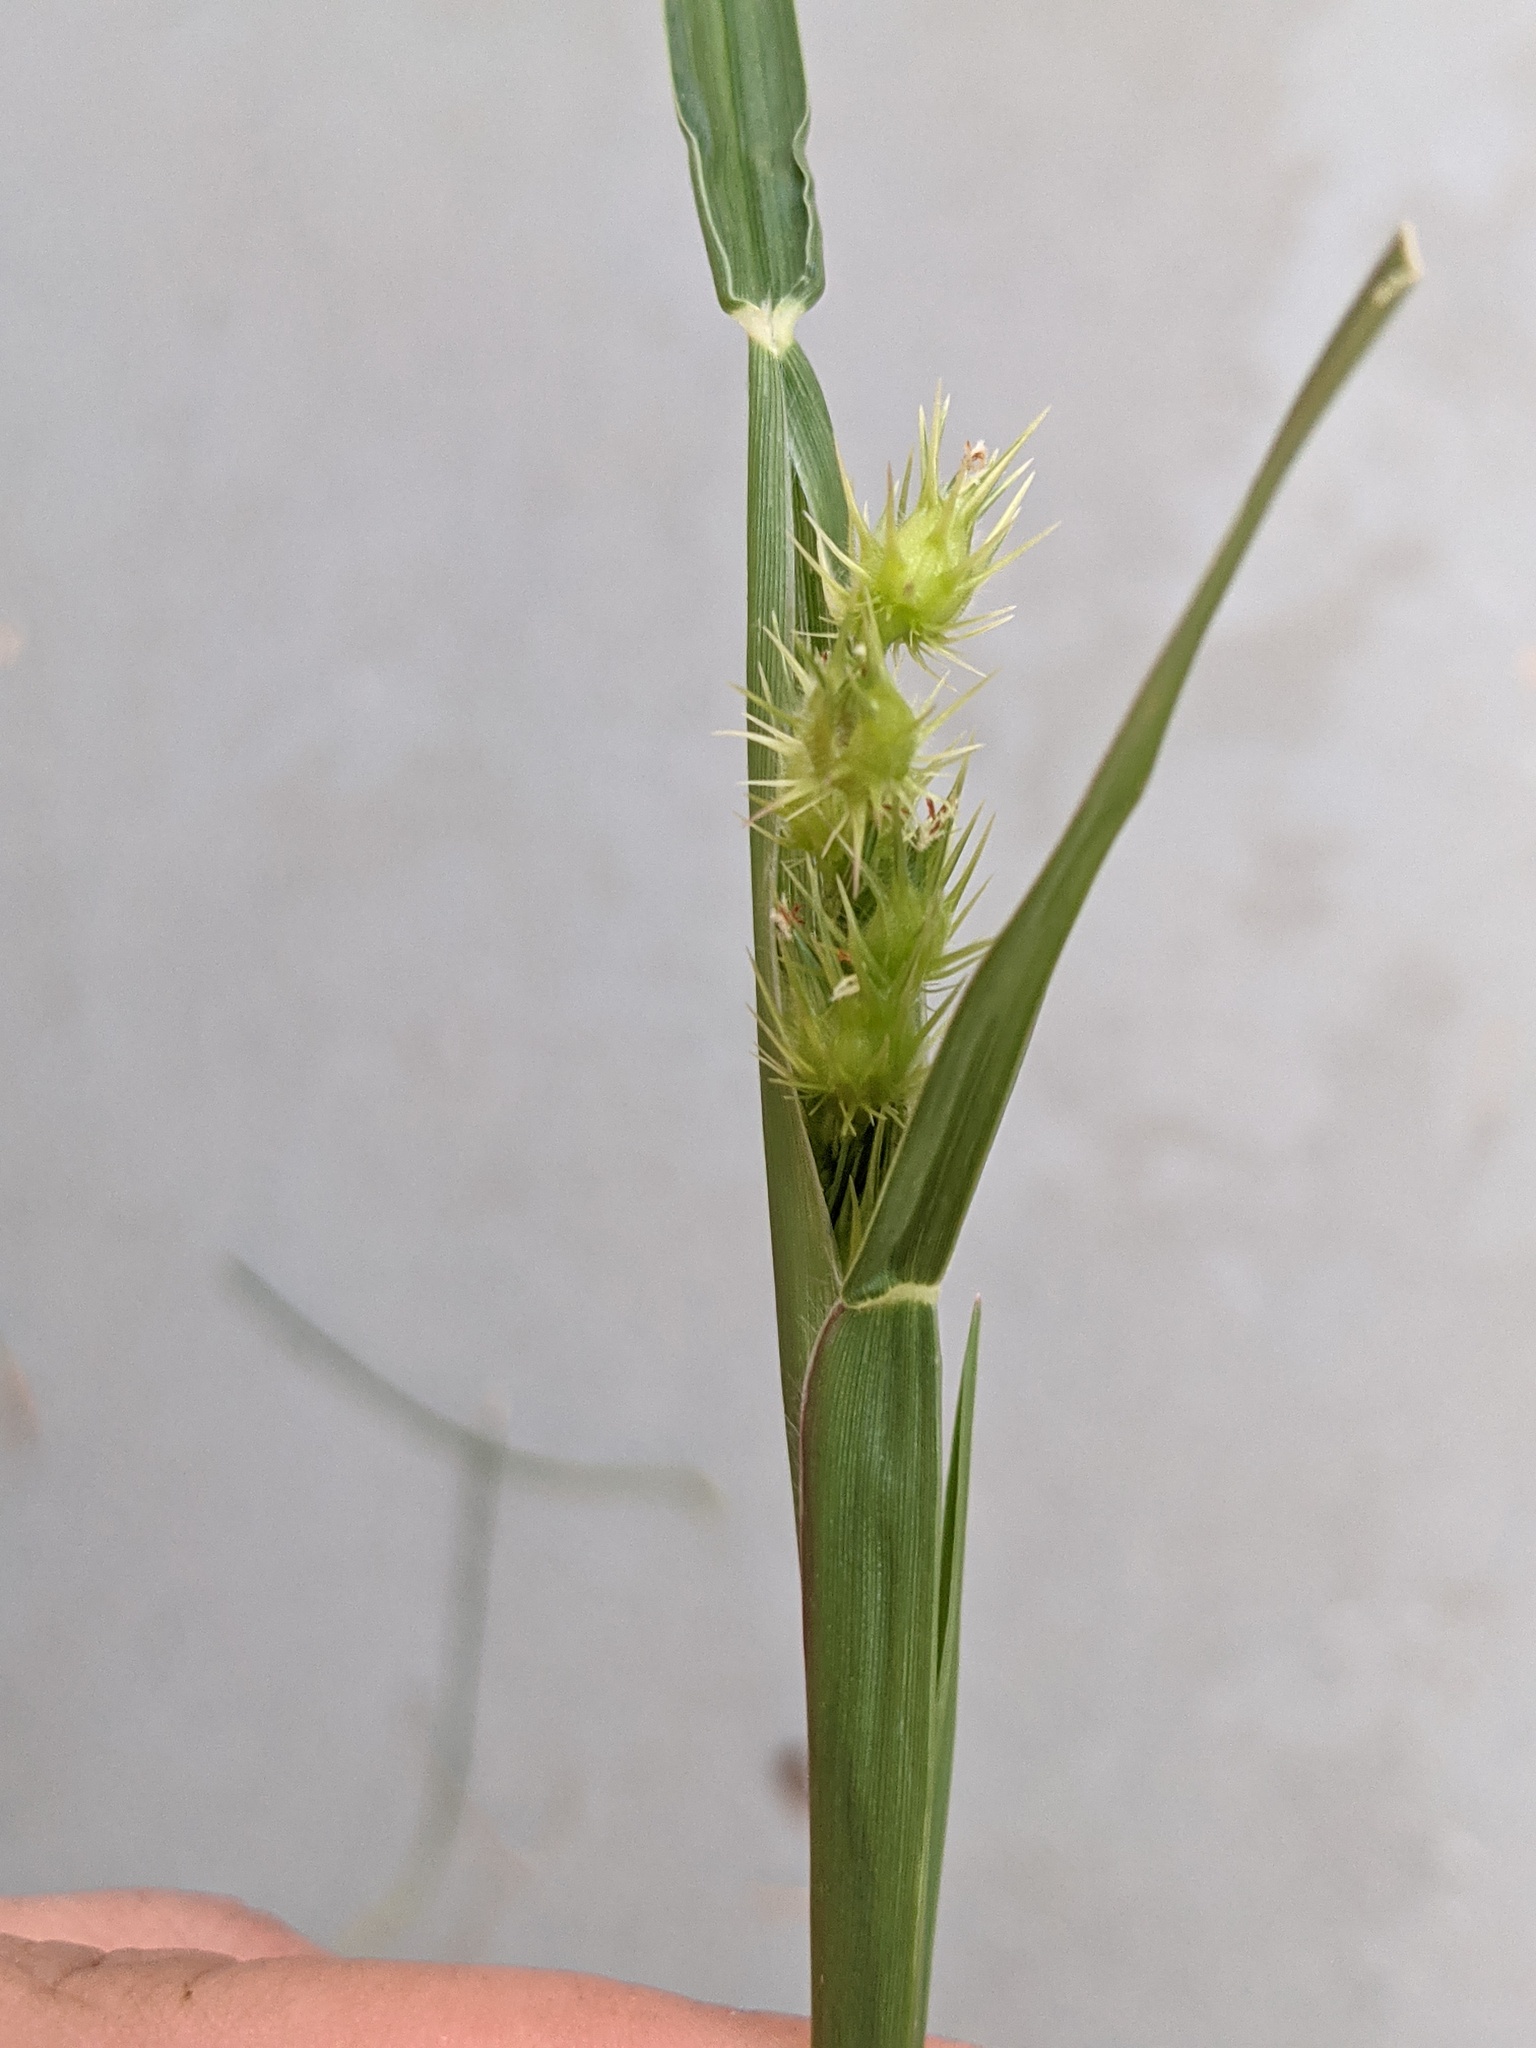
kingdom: Plantae
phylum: Tracheophyta
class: Liliopsida
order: Poales
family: Poaceae
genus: Cenchrus
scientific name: Cenchrus longispinus
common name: Mat sandbur
